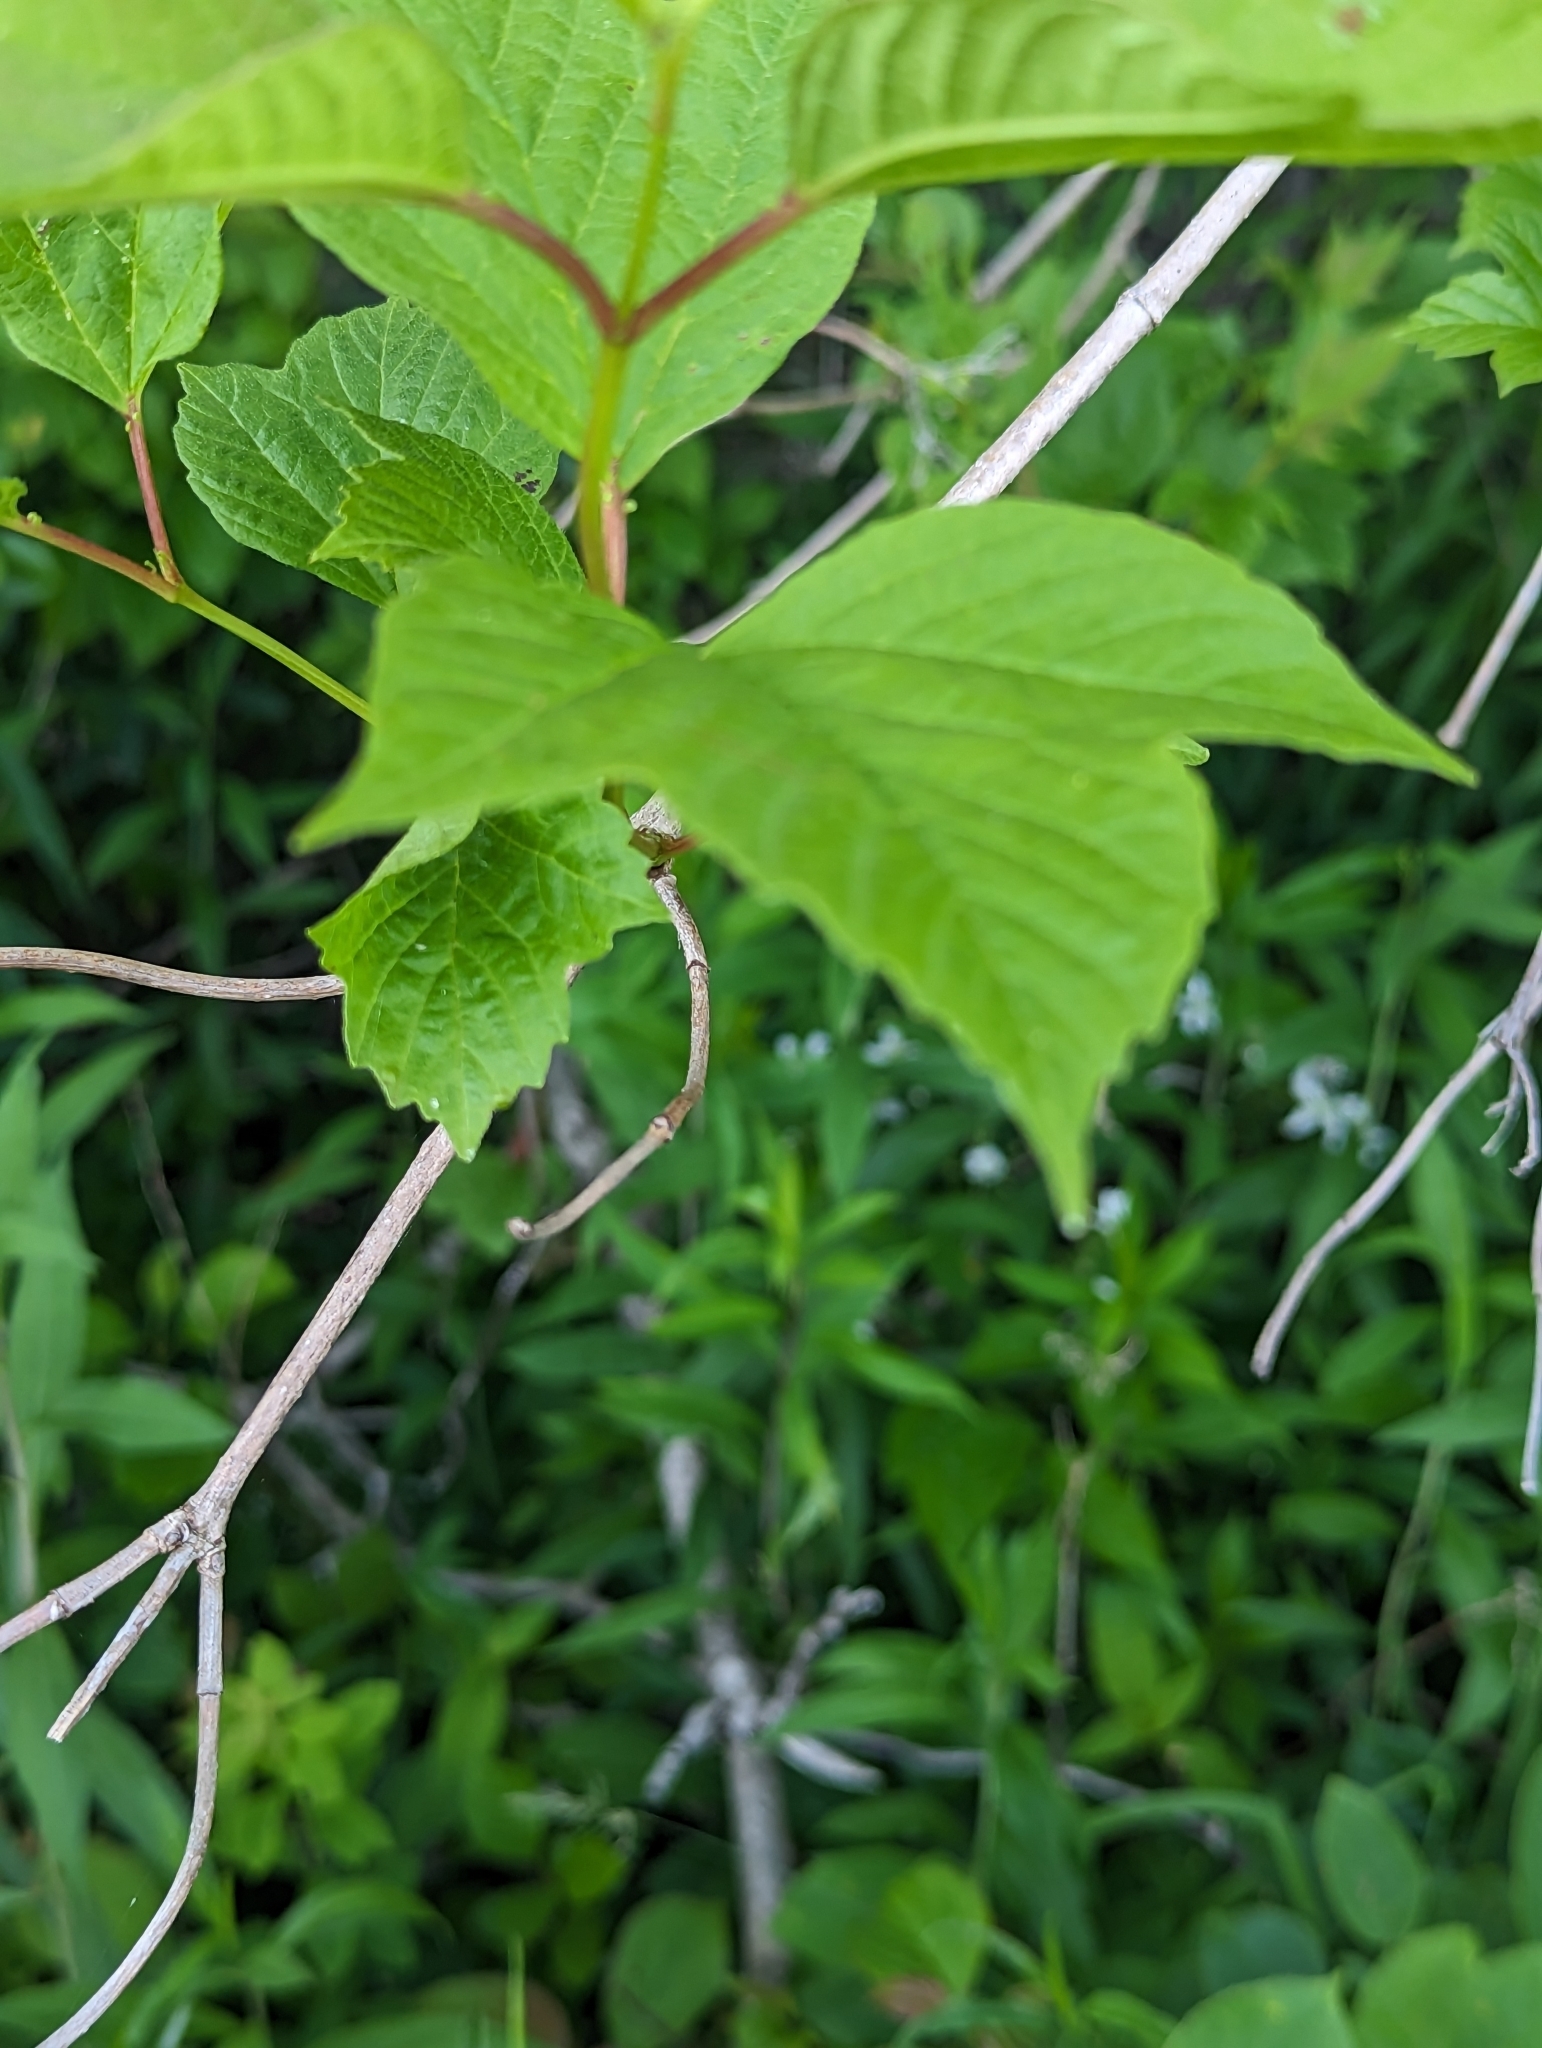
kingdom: Plantae
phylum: Tracheophyta
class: Magnoliopsida
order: Dipsacales
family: Viburnaceae
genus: Viburnum
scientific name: Viburnum opulus
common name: Guelder-rose
